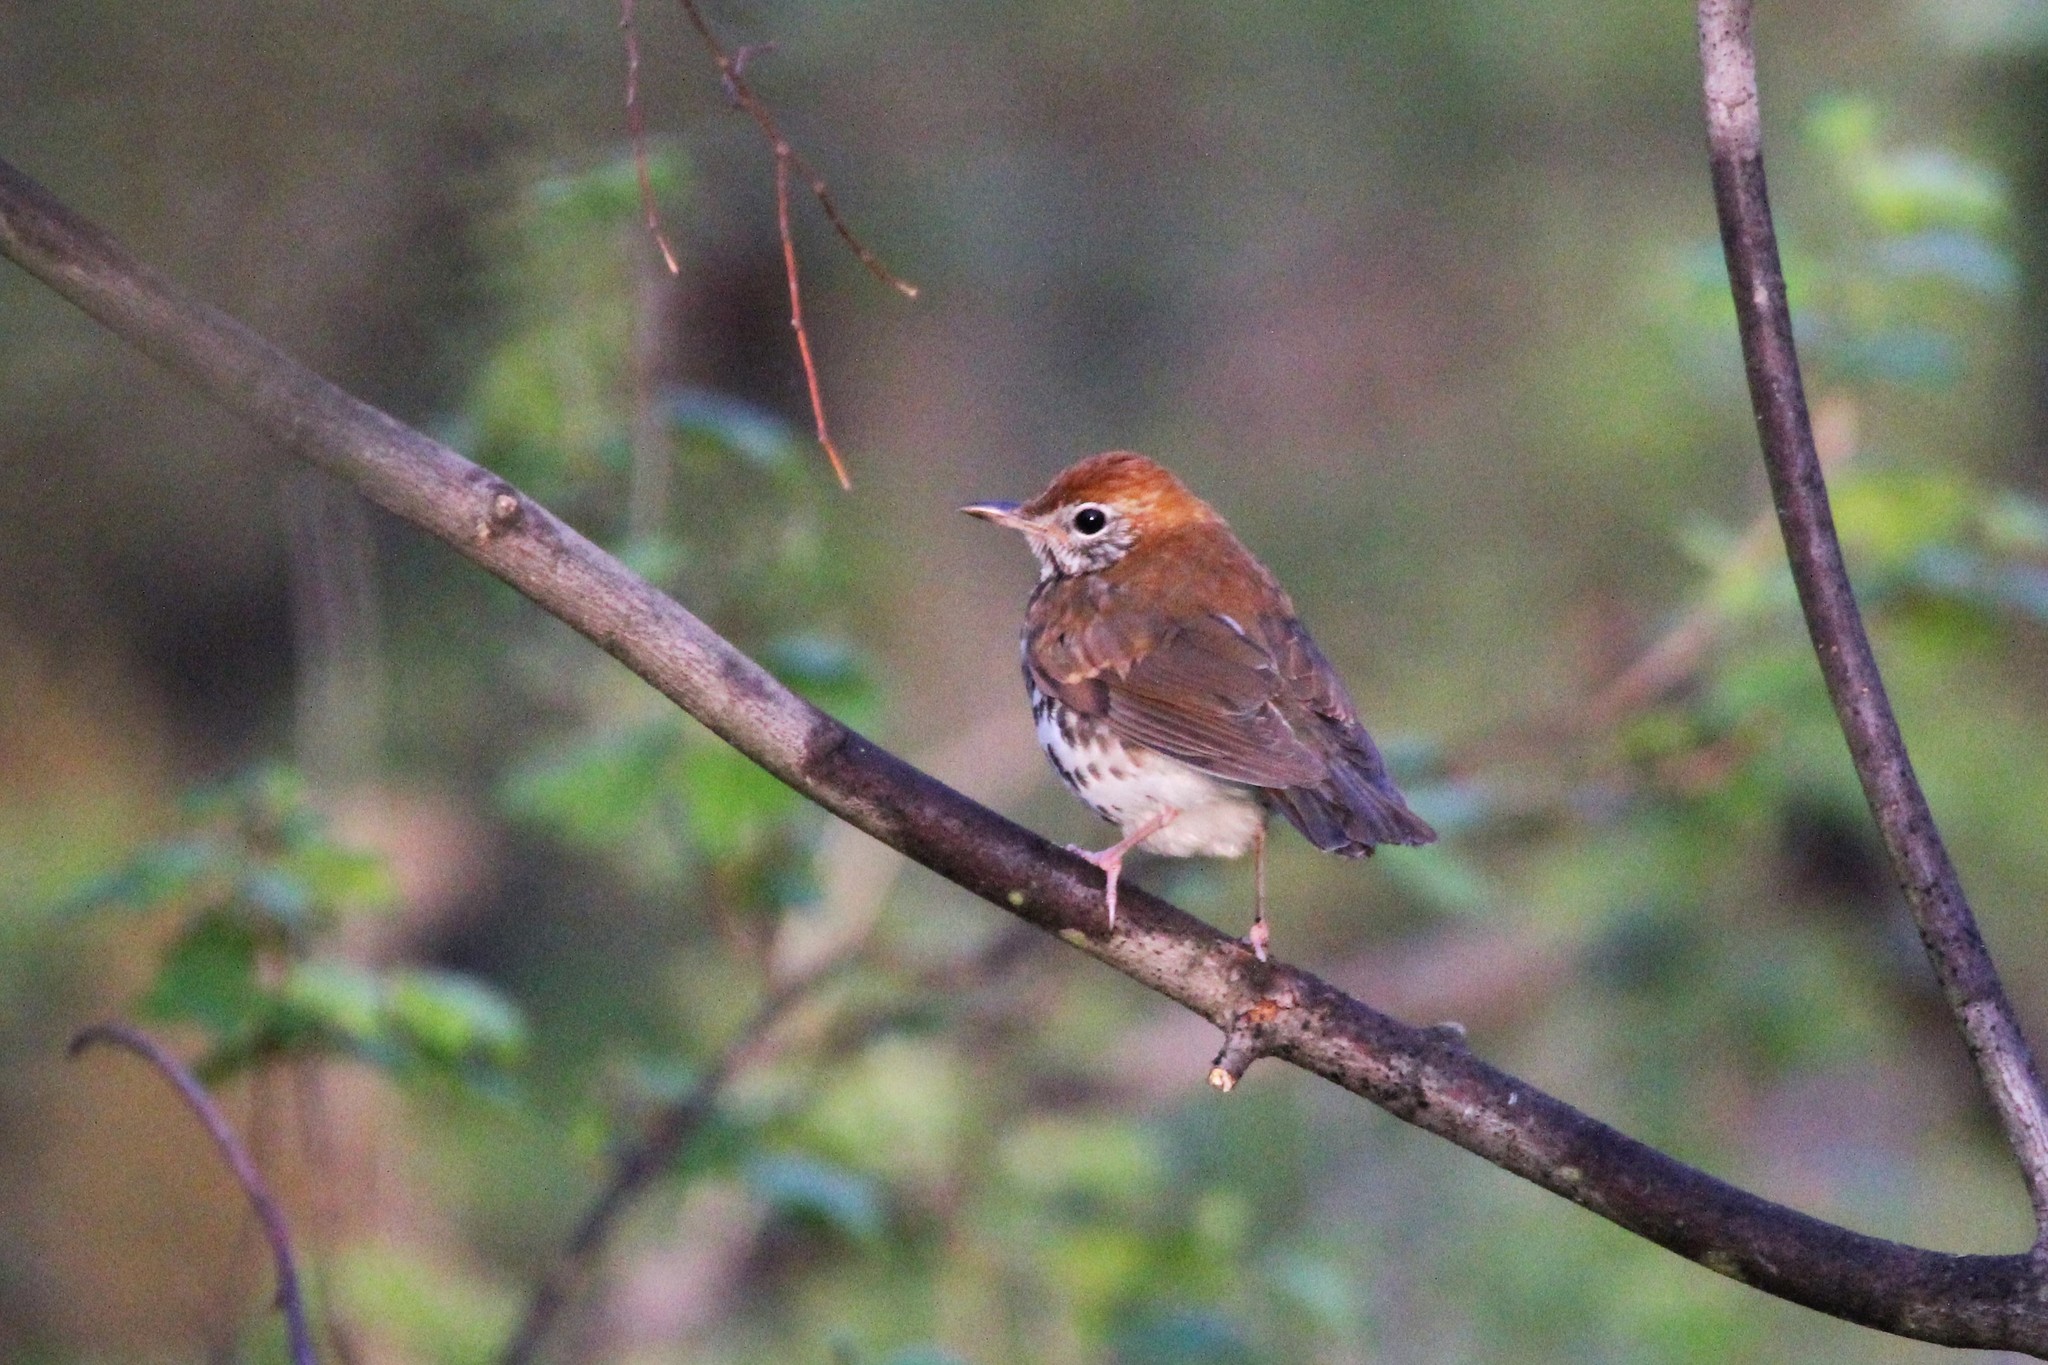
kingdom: Animalia
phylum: Chordata
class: Aves
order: Passeriformes
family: Turdidae
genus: Hylocichla
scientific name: Hylocichla mustelina
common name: Wood thrush
